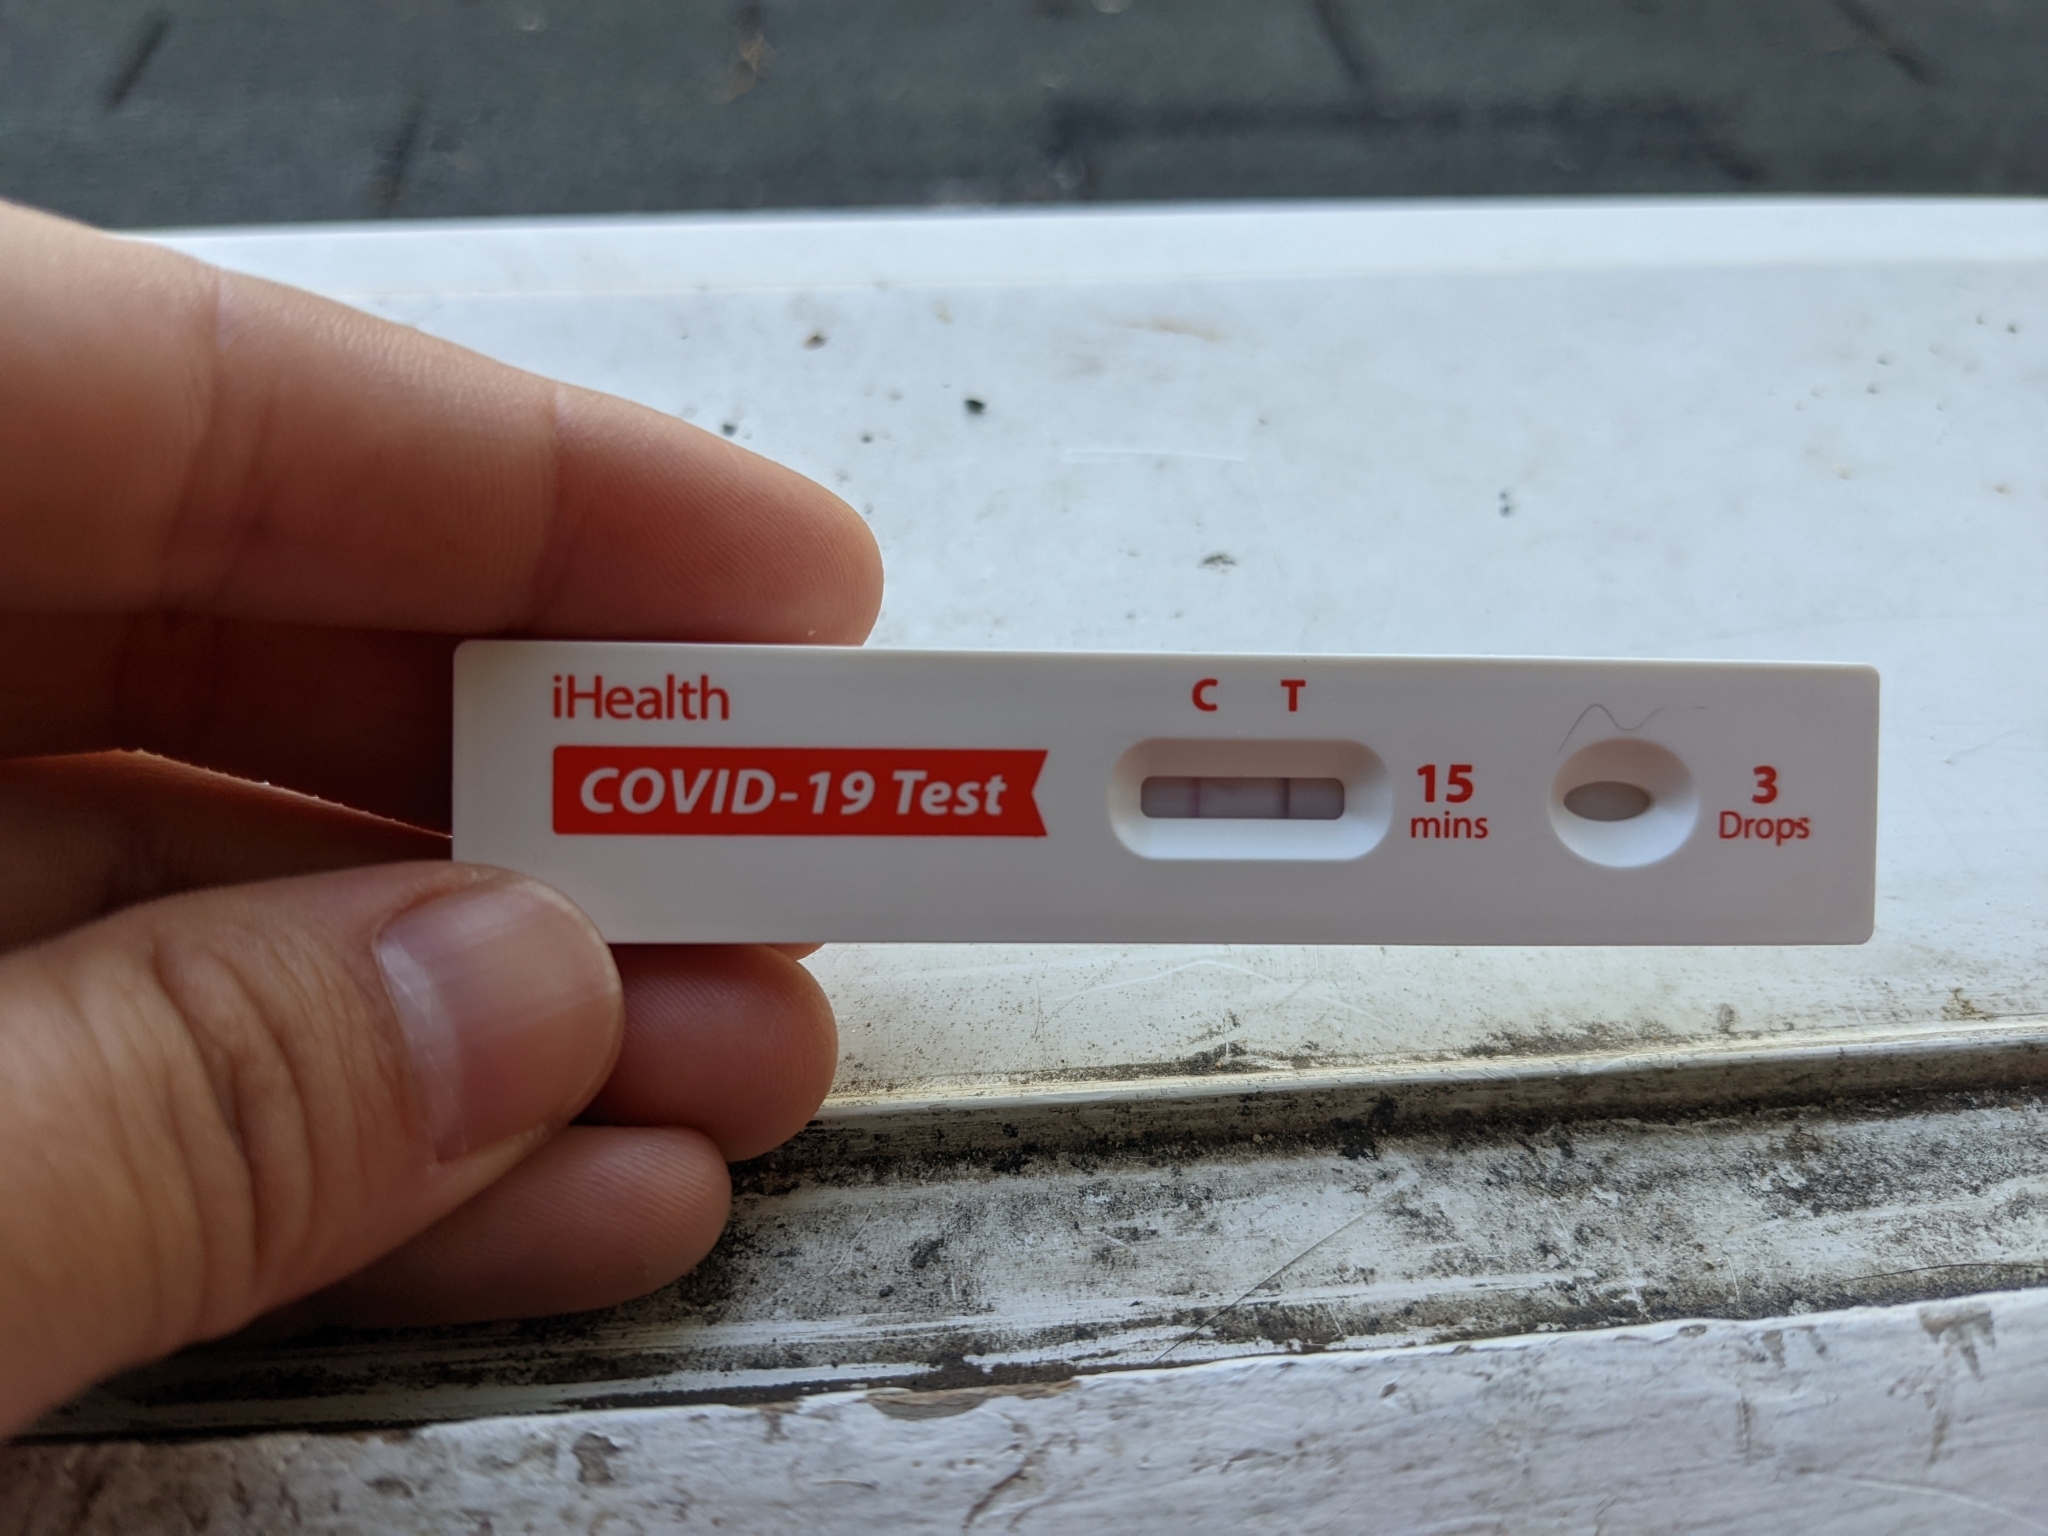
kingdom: Viruses
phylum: Pisuviricota
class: Pisoniviricetes
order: Nidovirales
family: Coronaviridae
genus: Betacoronavirus
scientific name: Betacoronavirus
